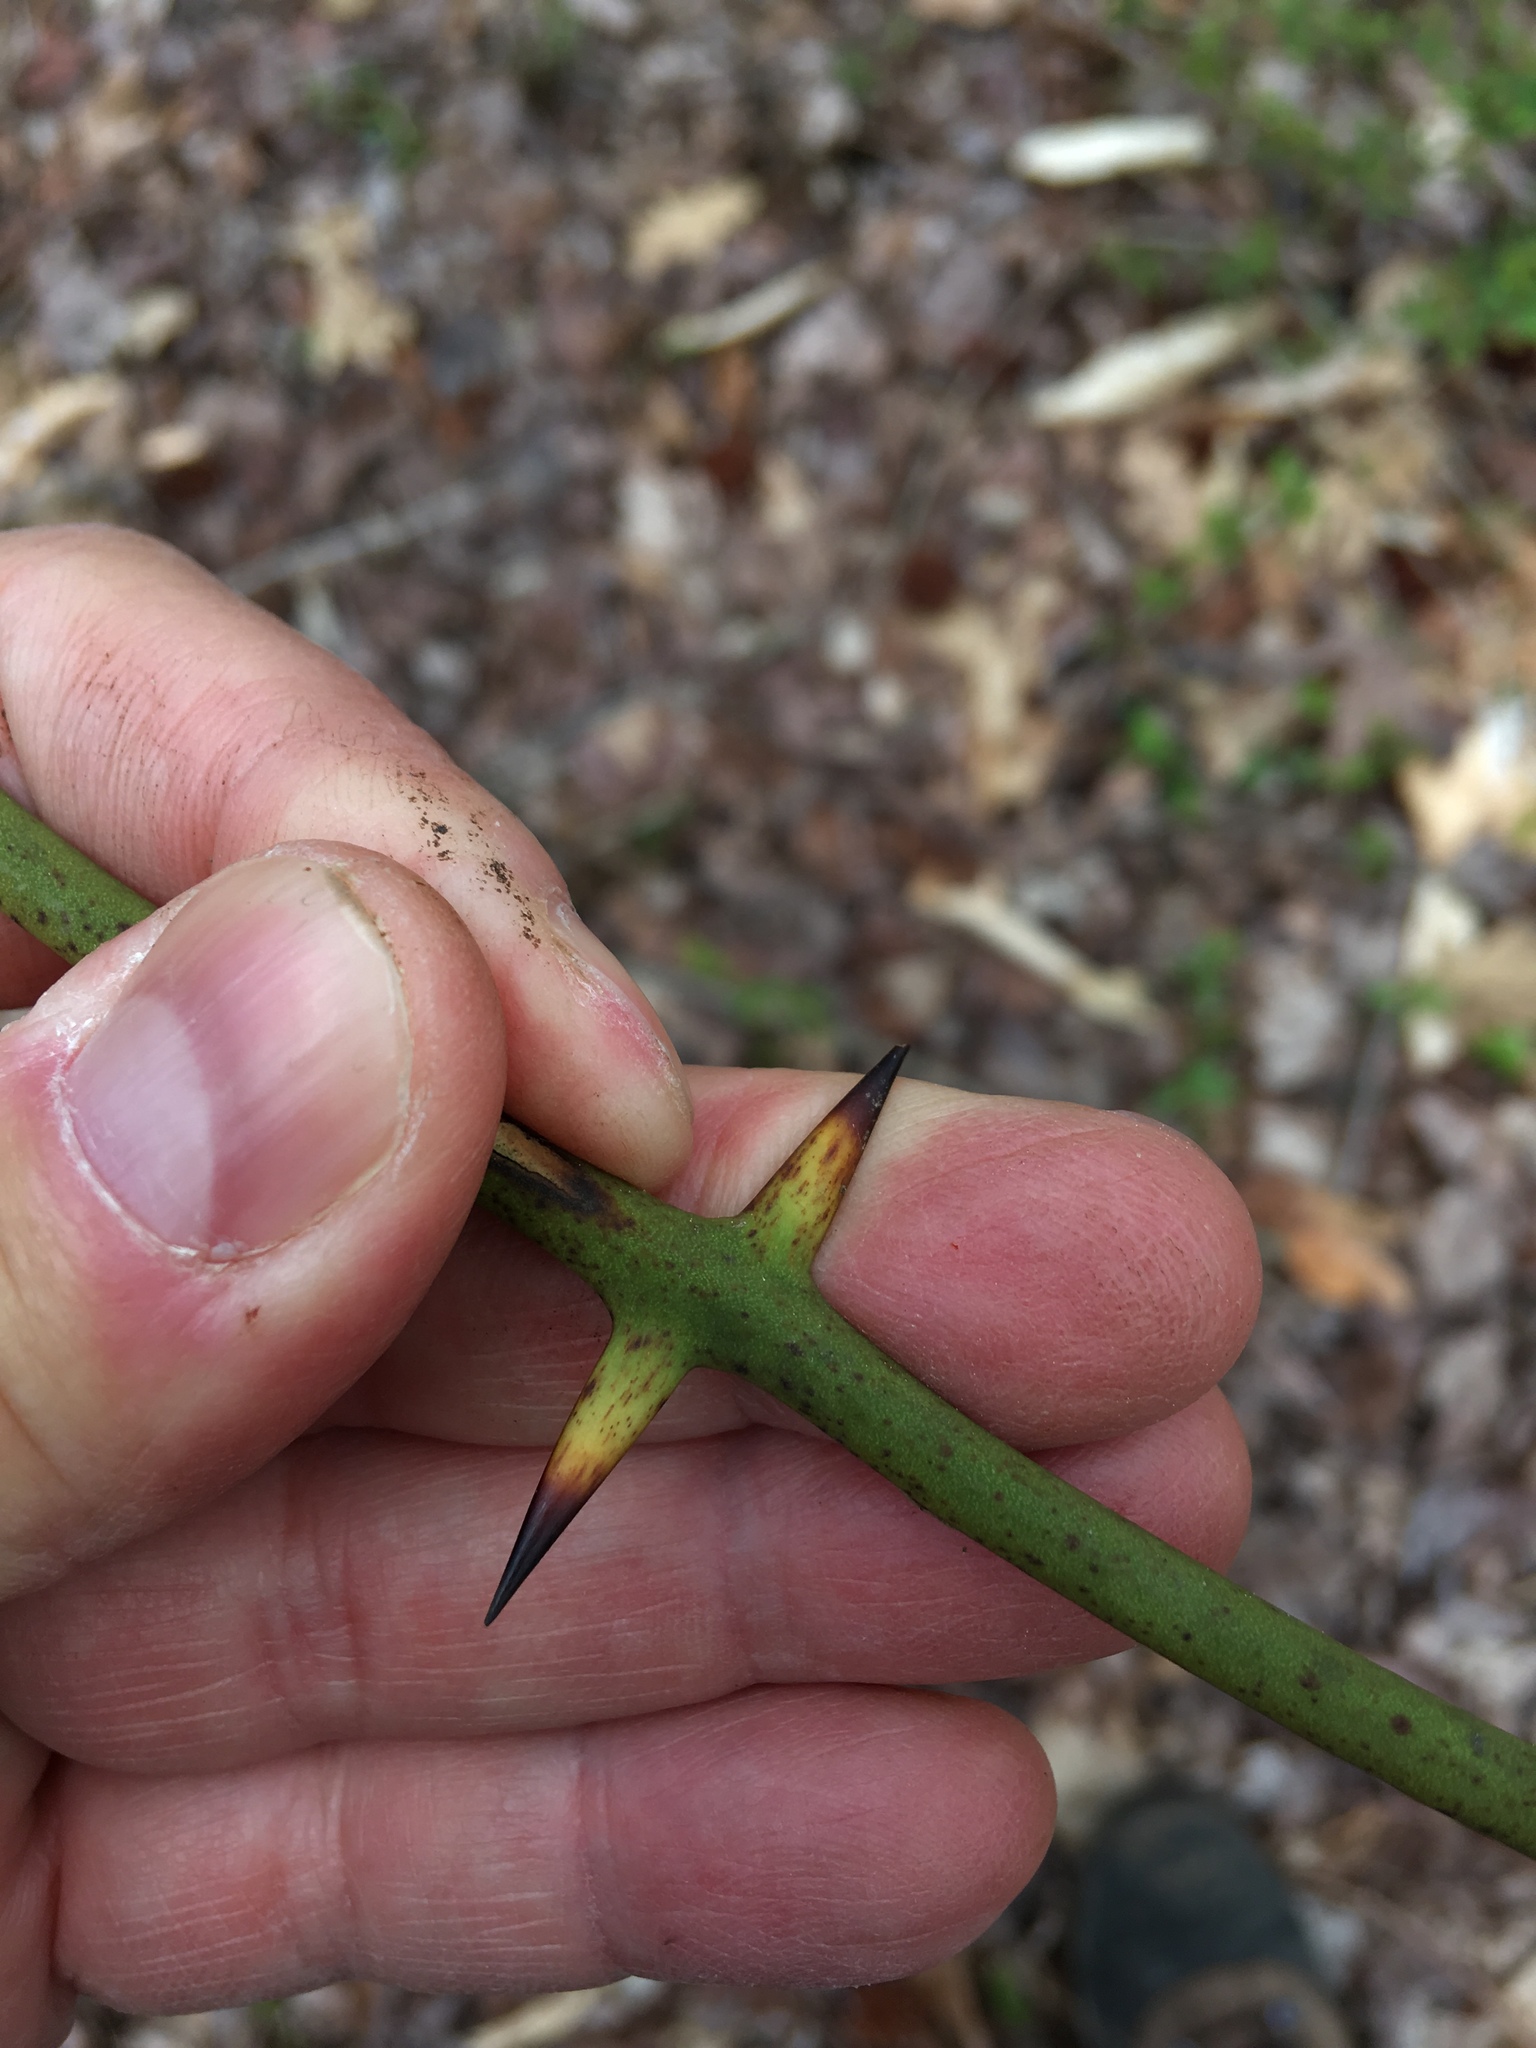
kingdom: Plantae
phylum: Tracheophyta
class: Liliopsida
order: Liliales
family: Smilacaceae
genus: Smilax
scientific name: Smilax rotundifolia
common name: Bullbriar
